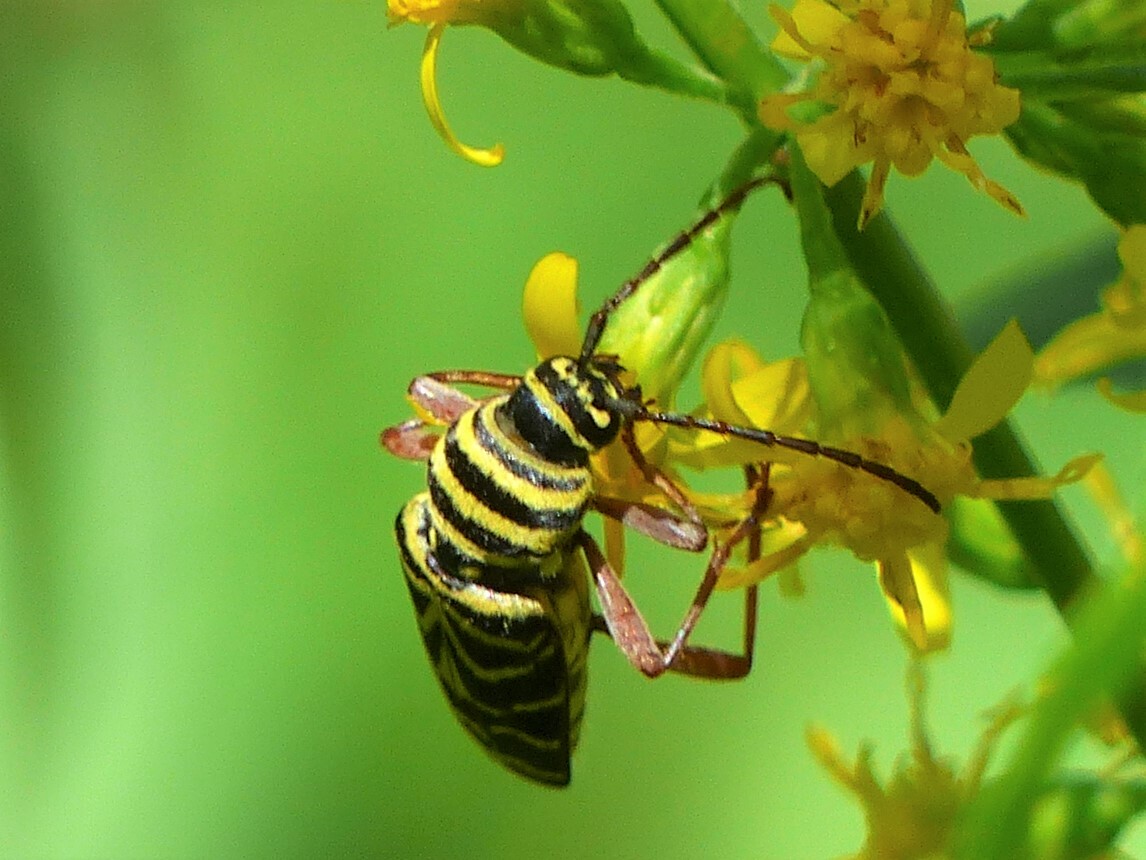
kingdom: Animalia
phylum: Arthropoda
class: Insecta
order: Coleoptera
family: Cerambycidae
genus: Megacyllene
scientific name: Megacyllene robiniae
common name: Locust borer
